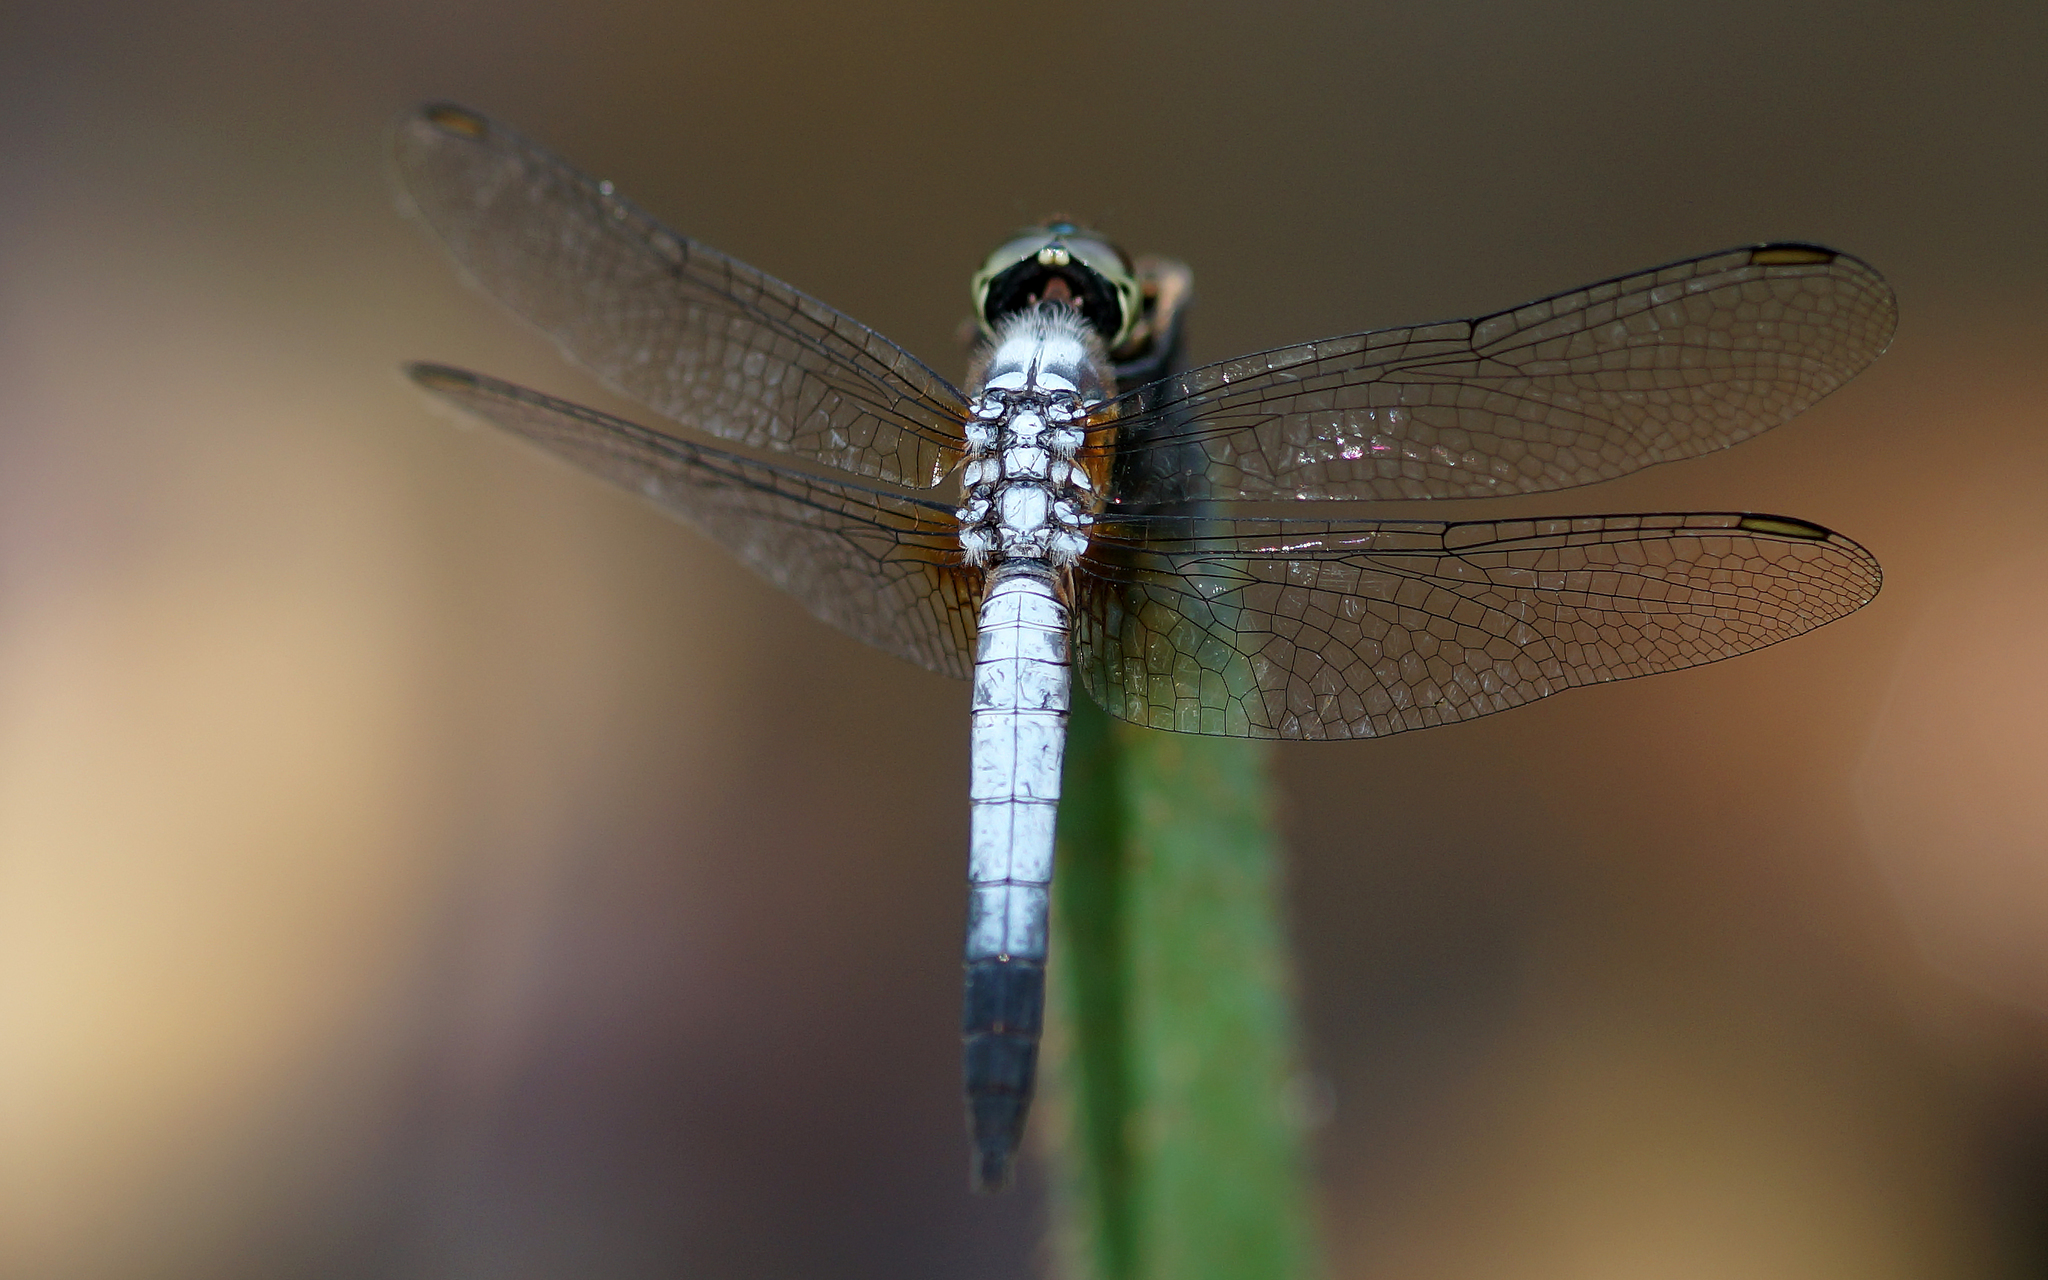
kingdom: Animalia
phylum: Arthropoda
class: Insecta
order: Odonata
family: Libellulidae
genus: Brachydiplax
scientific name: Brachydiplax chalybea
